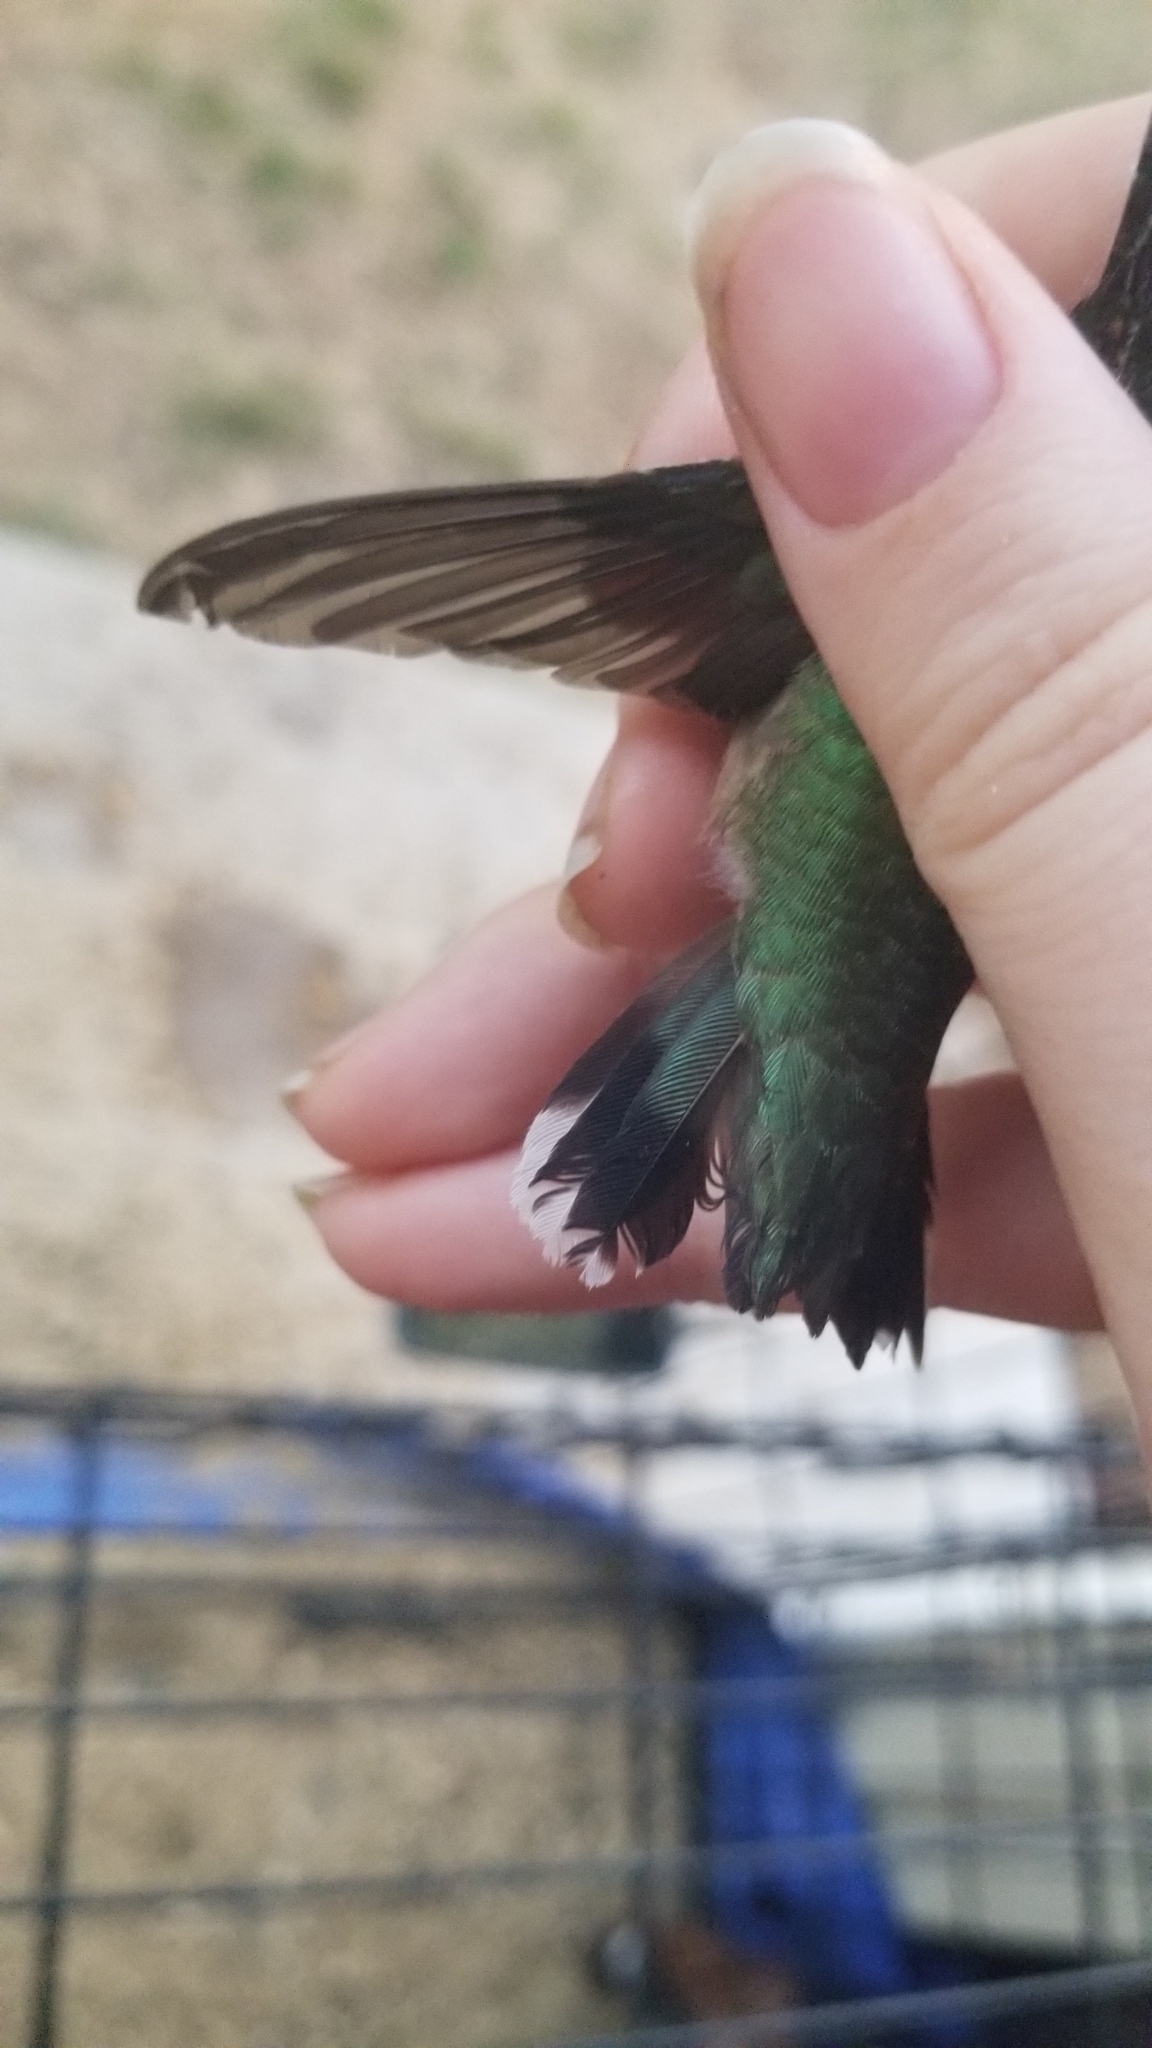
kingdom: Animalia
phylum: Chordata
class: Aves
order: Apodiformes
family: Trochilidae
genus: Archilochus
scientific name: Archilochus colubris
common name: Ruby-throated hummingbird
